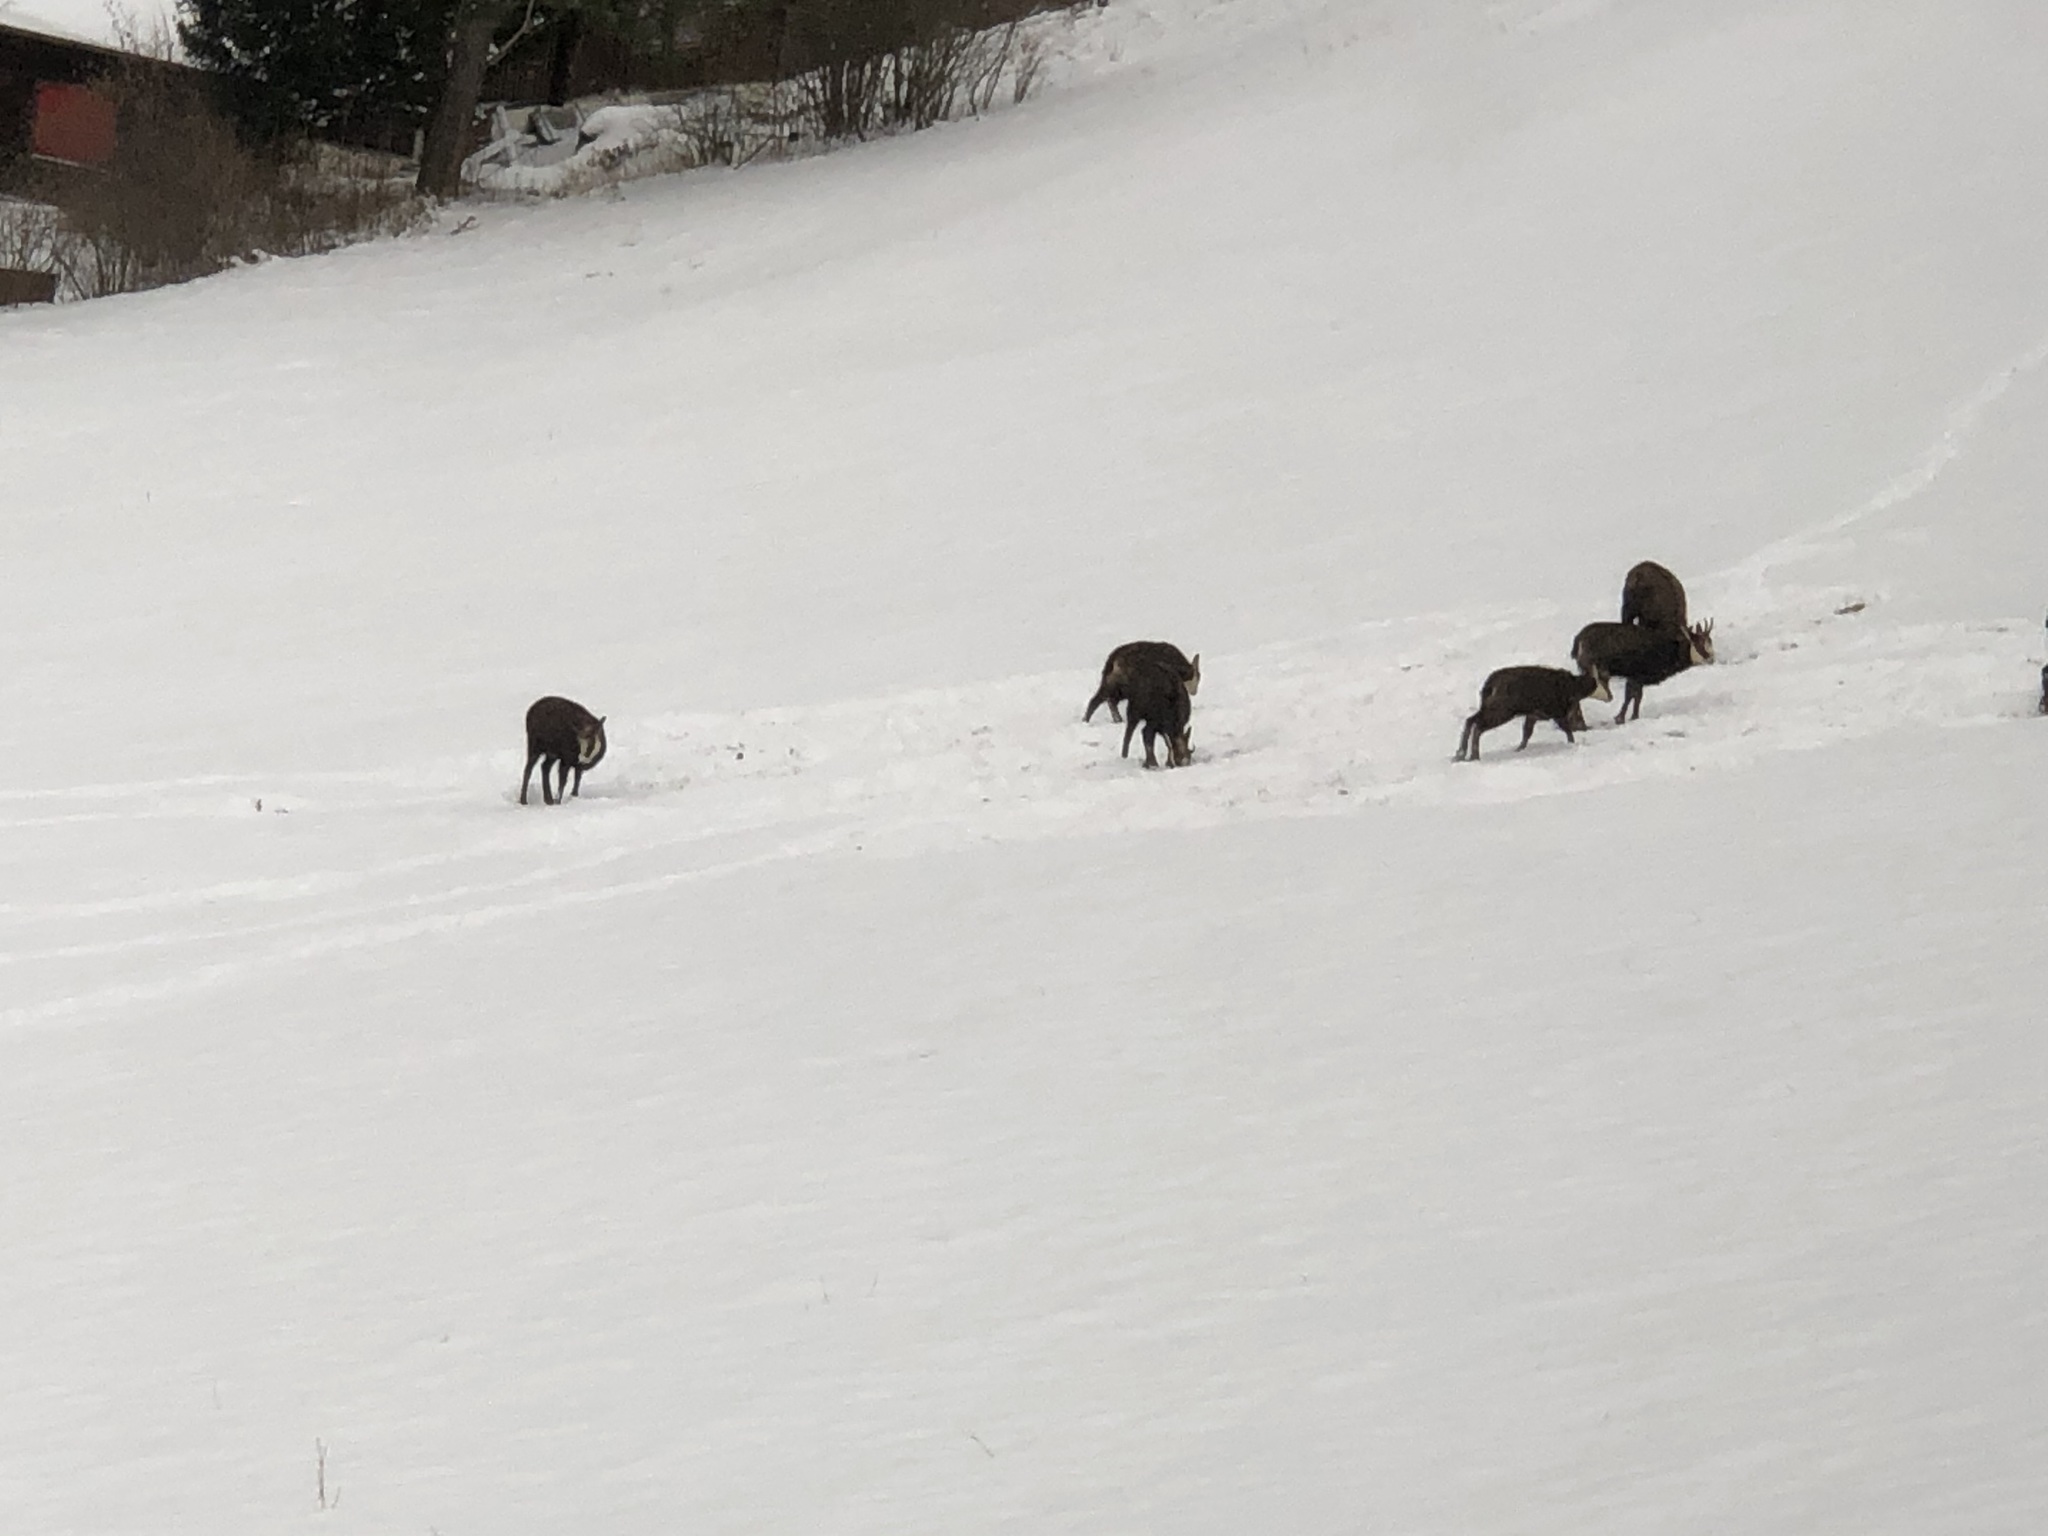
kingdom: Animalia
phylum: Chordata
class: Mammalia
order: Artiodactyla
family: Bovidae
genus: Rupicapra
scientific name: Rupicapra rupicapra
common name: Chamois
